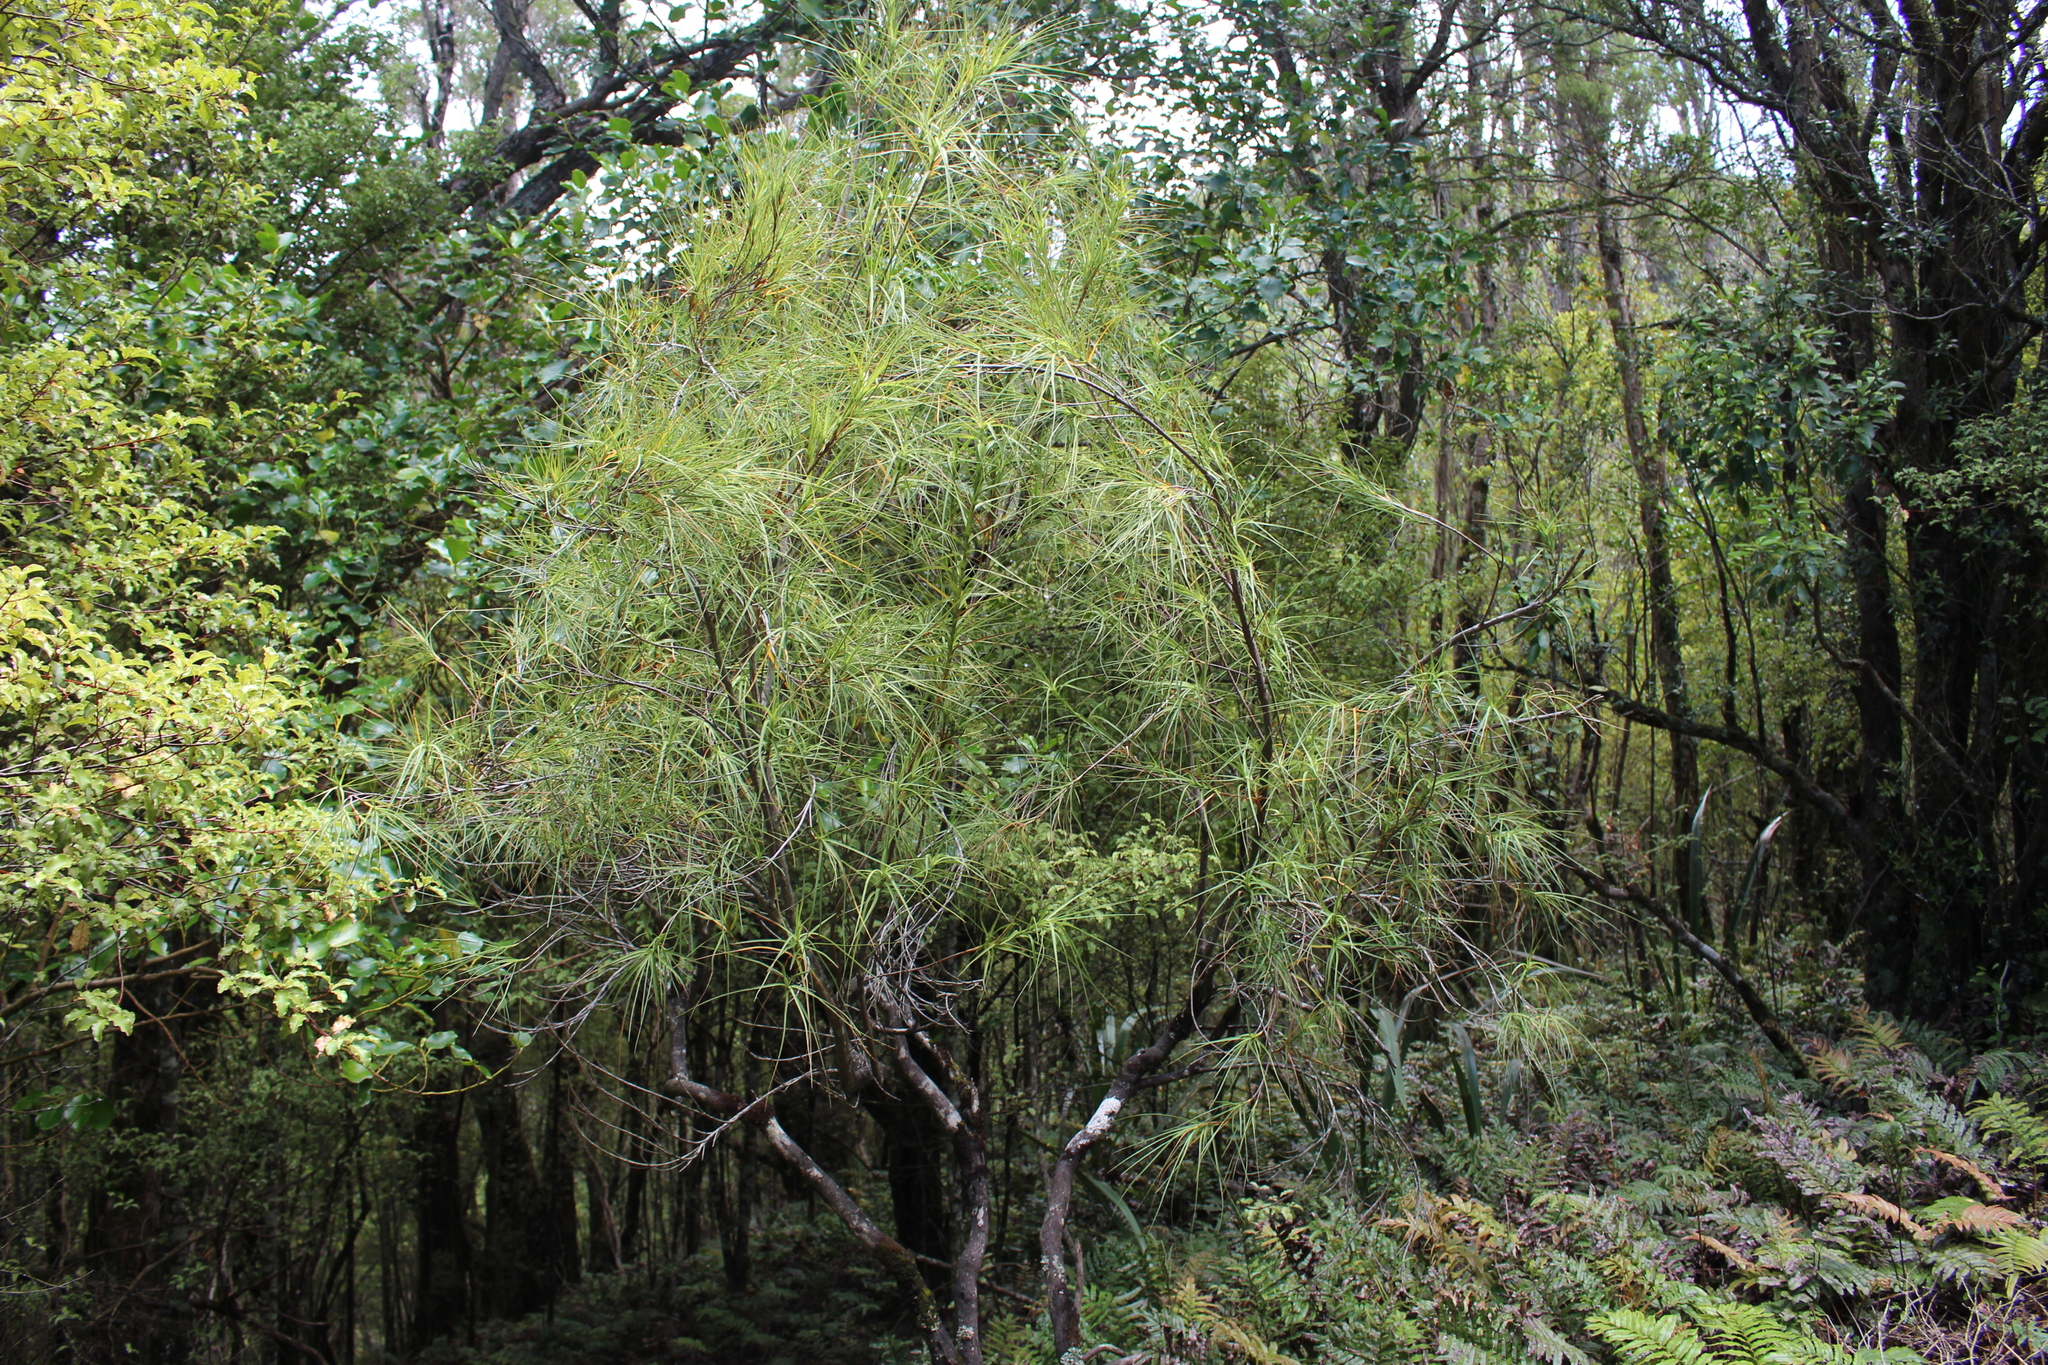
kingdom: Plantae
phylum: Tracheophyta
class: Magnoliopsida
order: Ericales
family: Ericaceae
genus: Dracophyllum
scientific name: Dracophyllum filifolium
